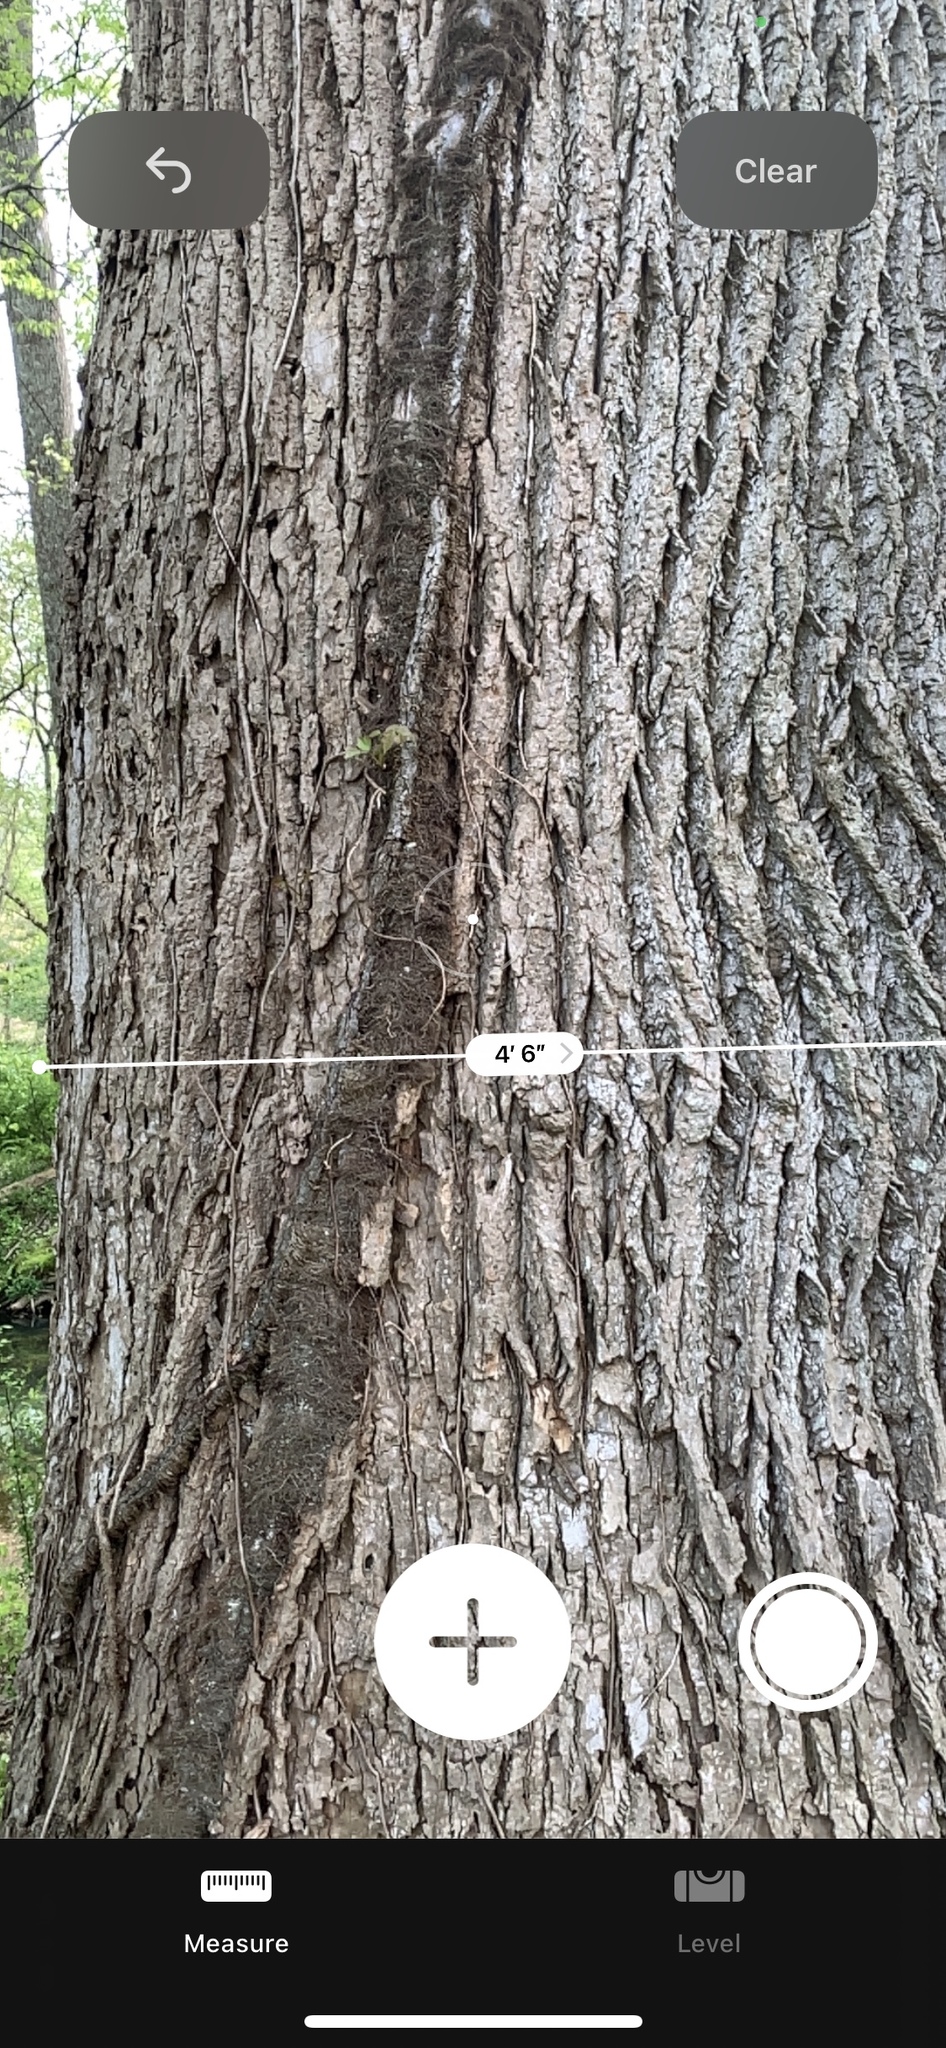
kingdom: Plantae
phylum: Tracheophyta
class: Magnoliopsida
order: Magnoliales
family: Magnoliaceae
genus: Liriodendron
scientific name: Liriodendron tulipifera
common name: Tulip tree
